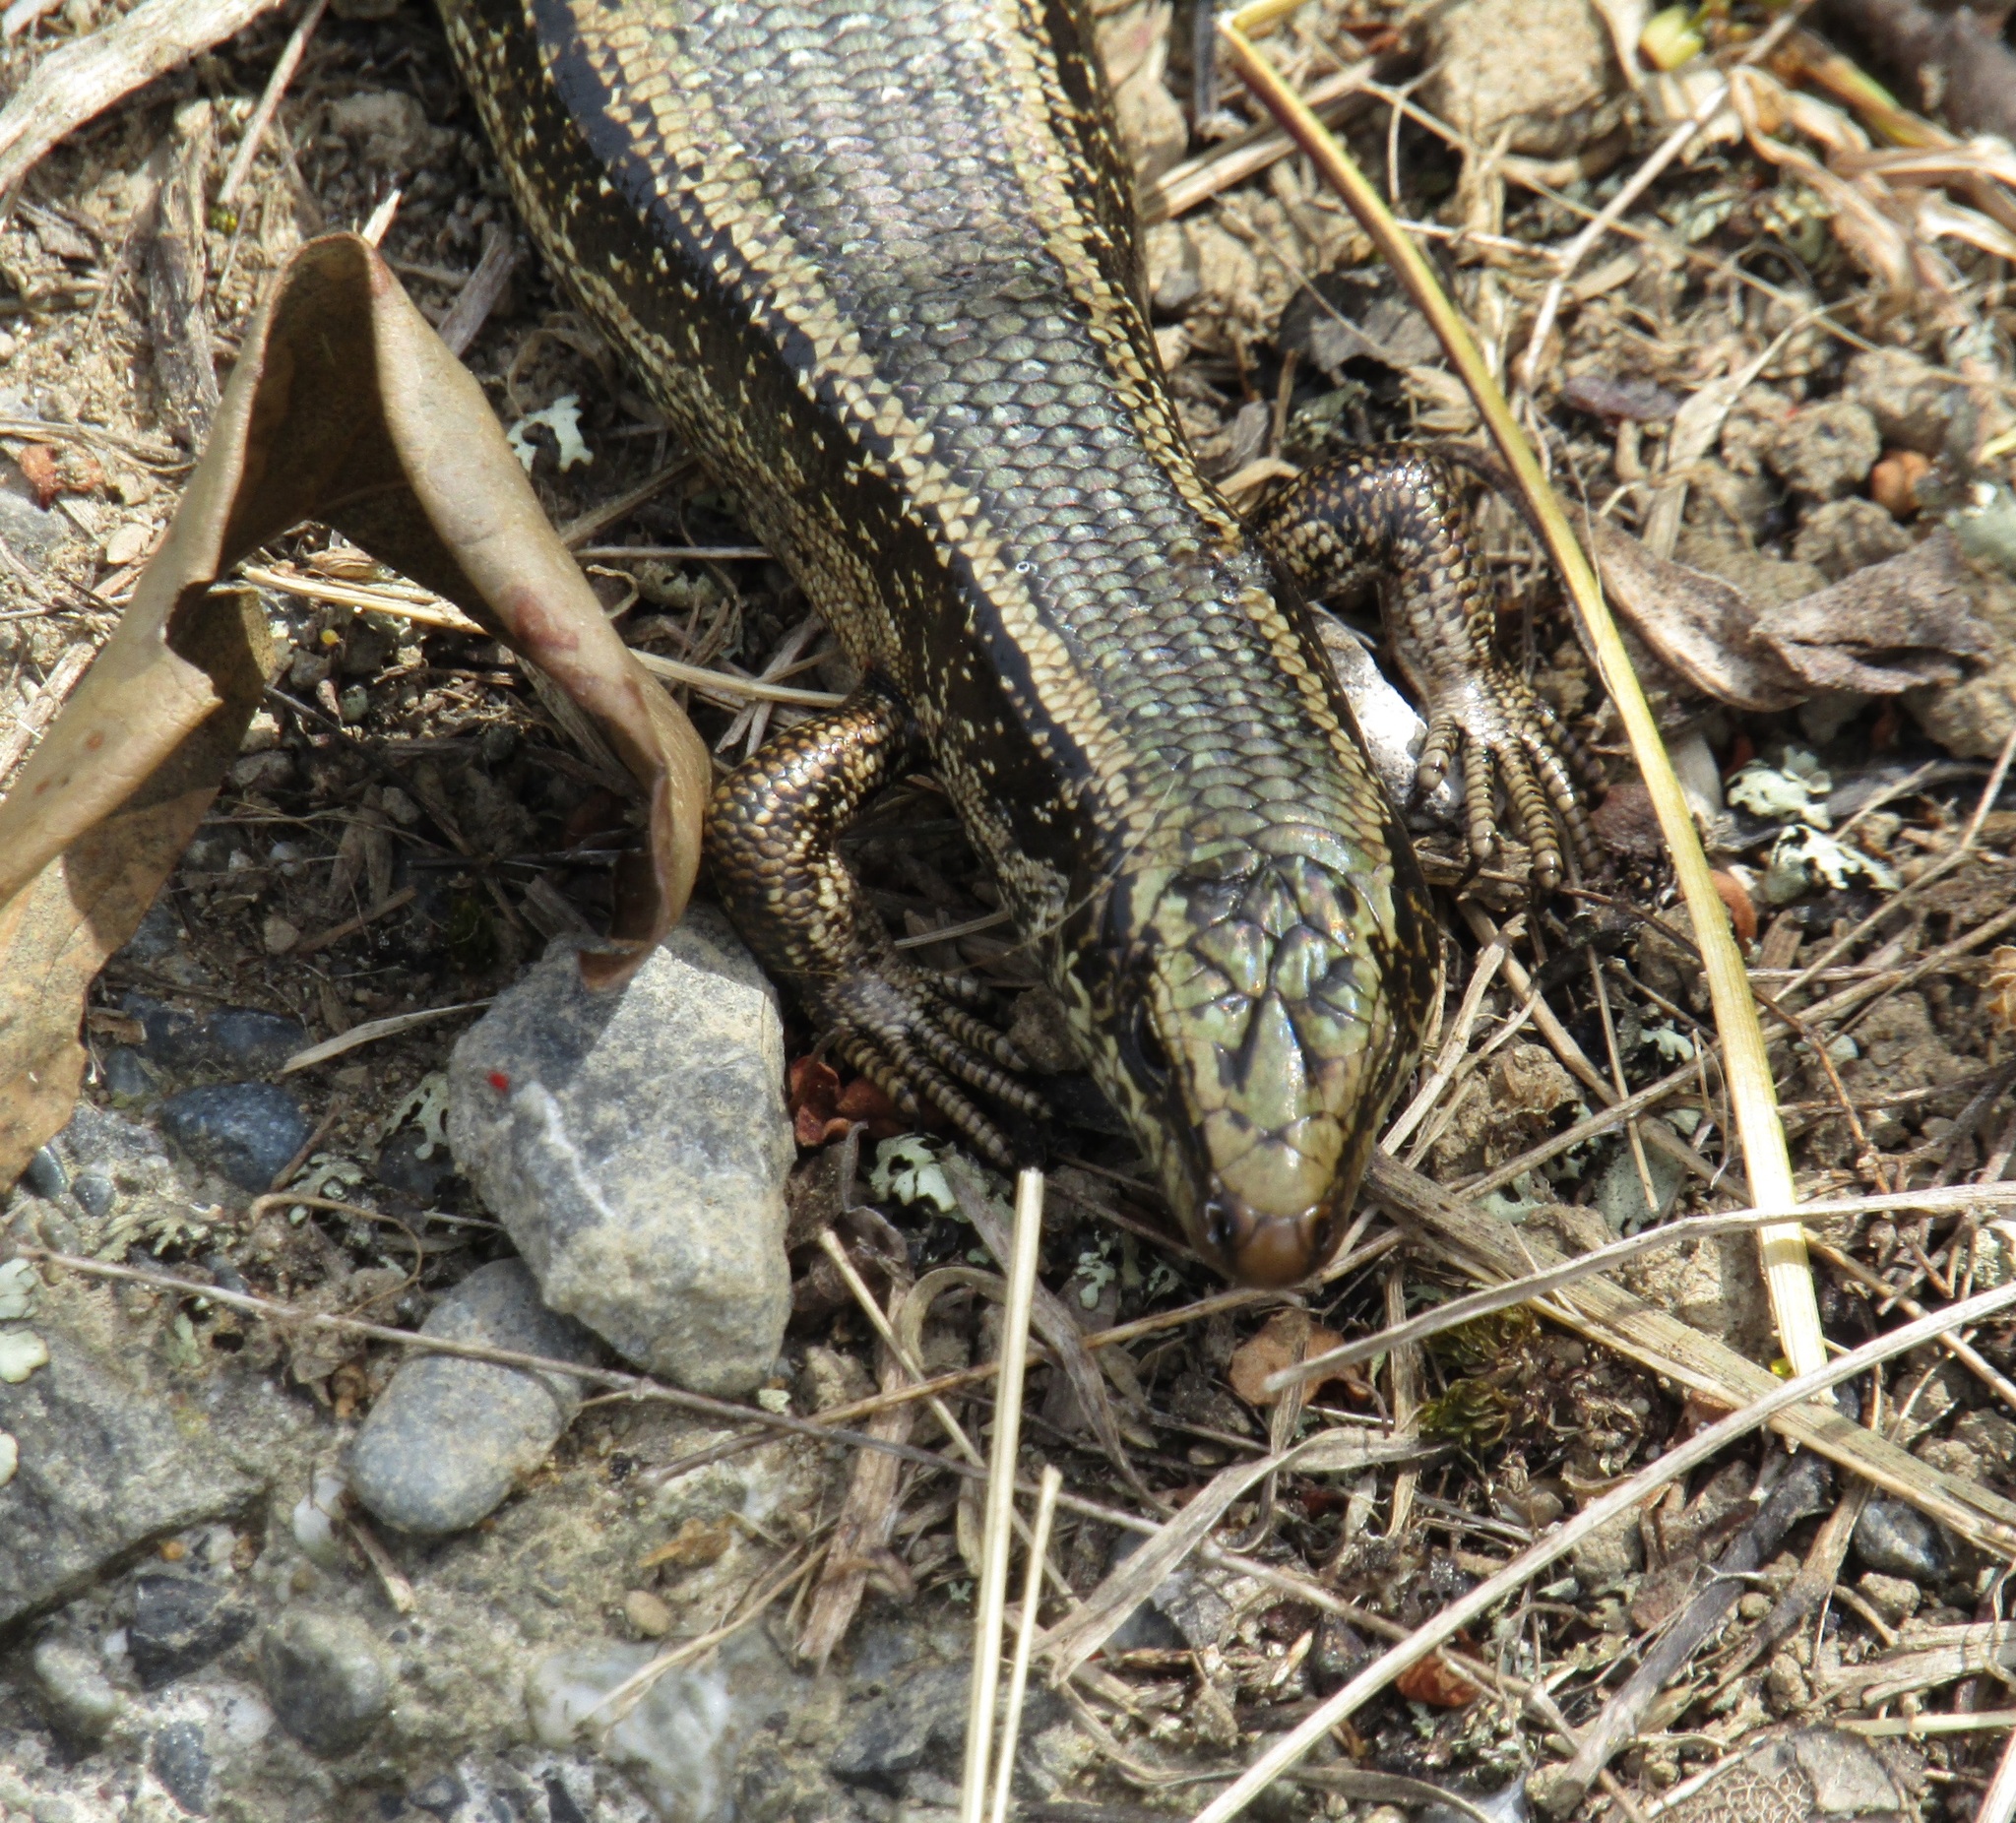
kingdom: Animalia
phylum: Chordata
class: Squamata
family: Scincidae
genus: Oligosoma
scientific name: Oligosoma kokowai
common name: Northern spotted skink
